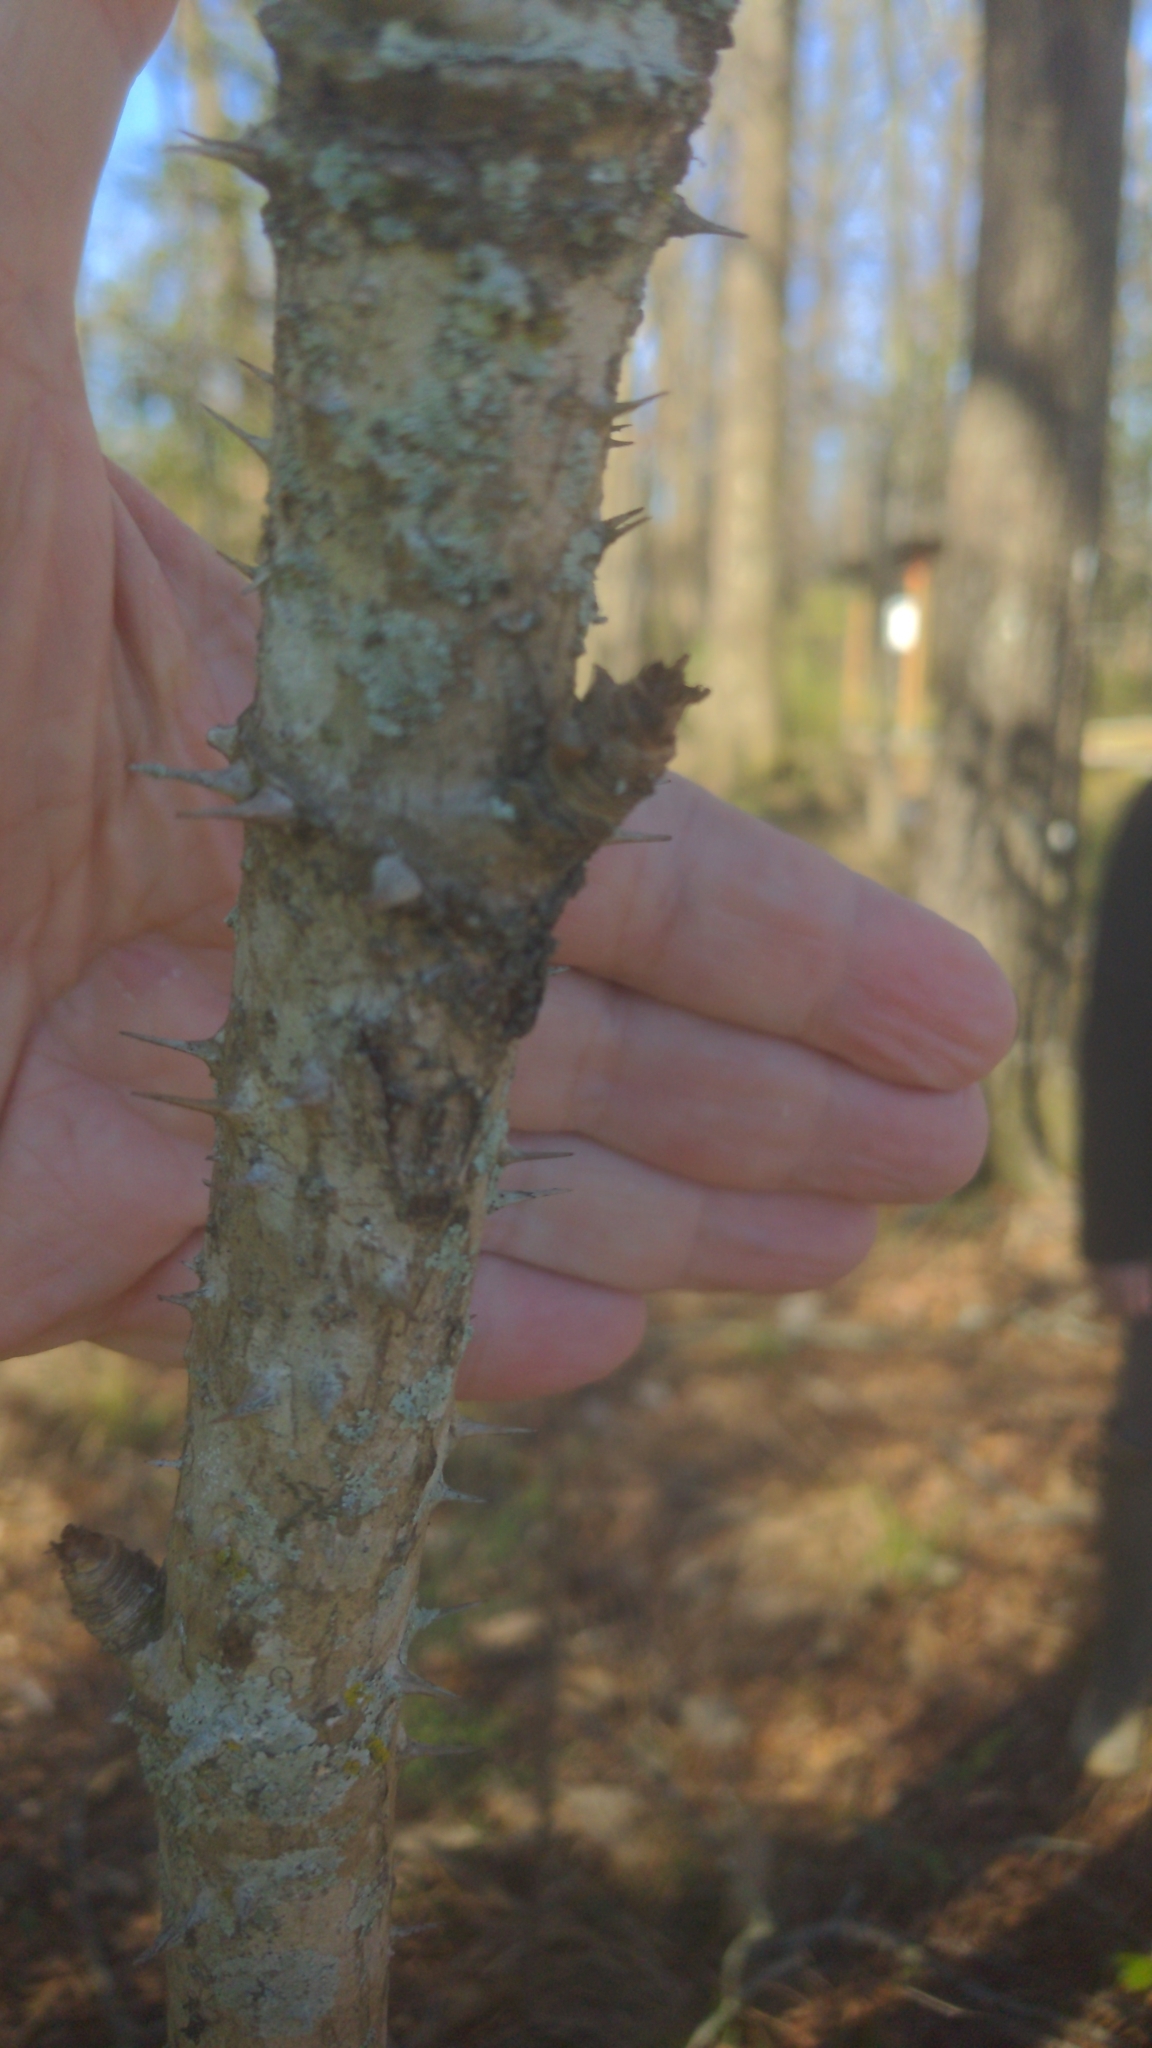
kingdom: Plantae
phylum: Tracheophyta
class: Magnoliopsida
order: Apiales
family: Araliaceae
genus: Aralia
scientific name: Aralia spinosa
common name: Hercules'-club
